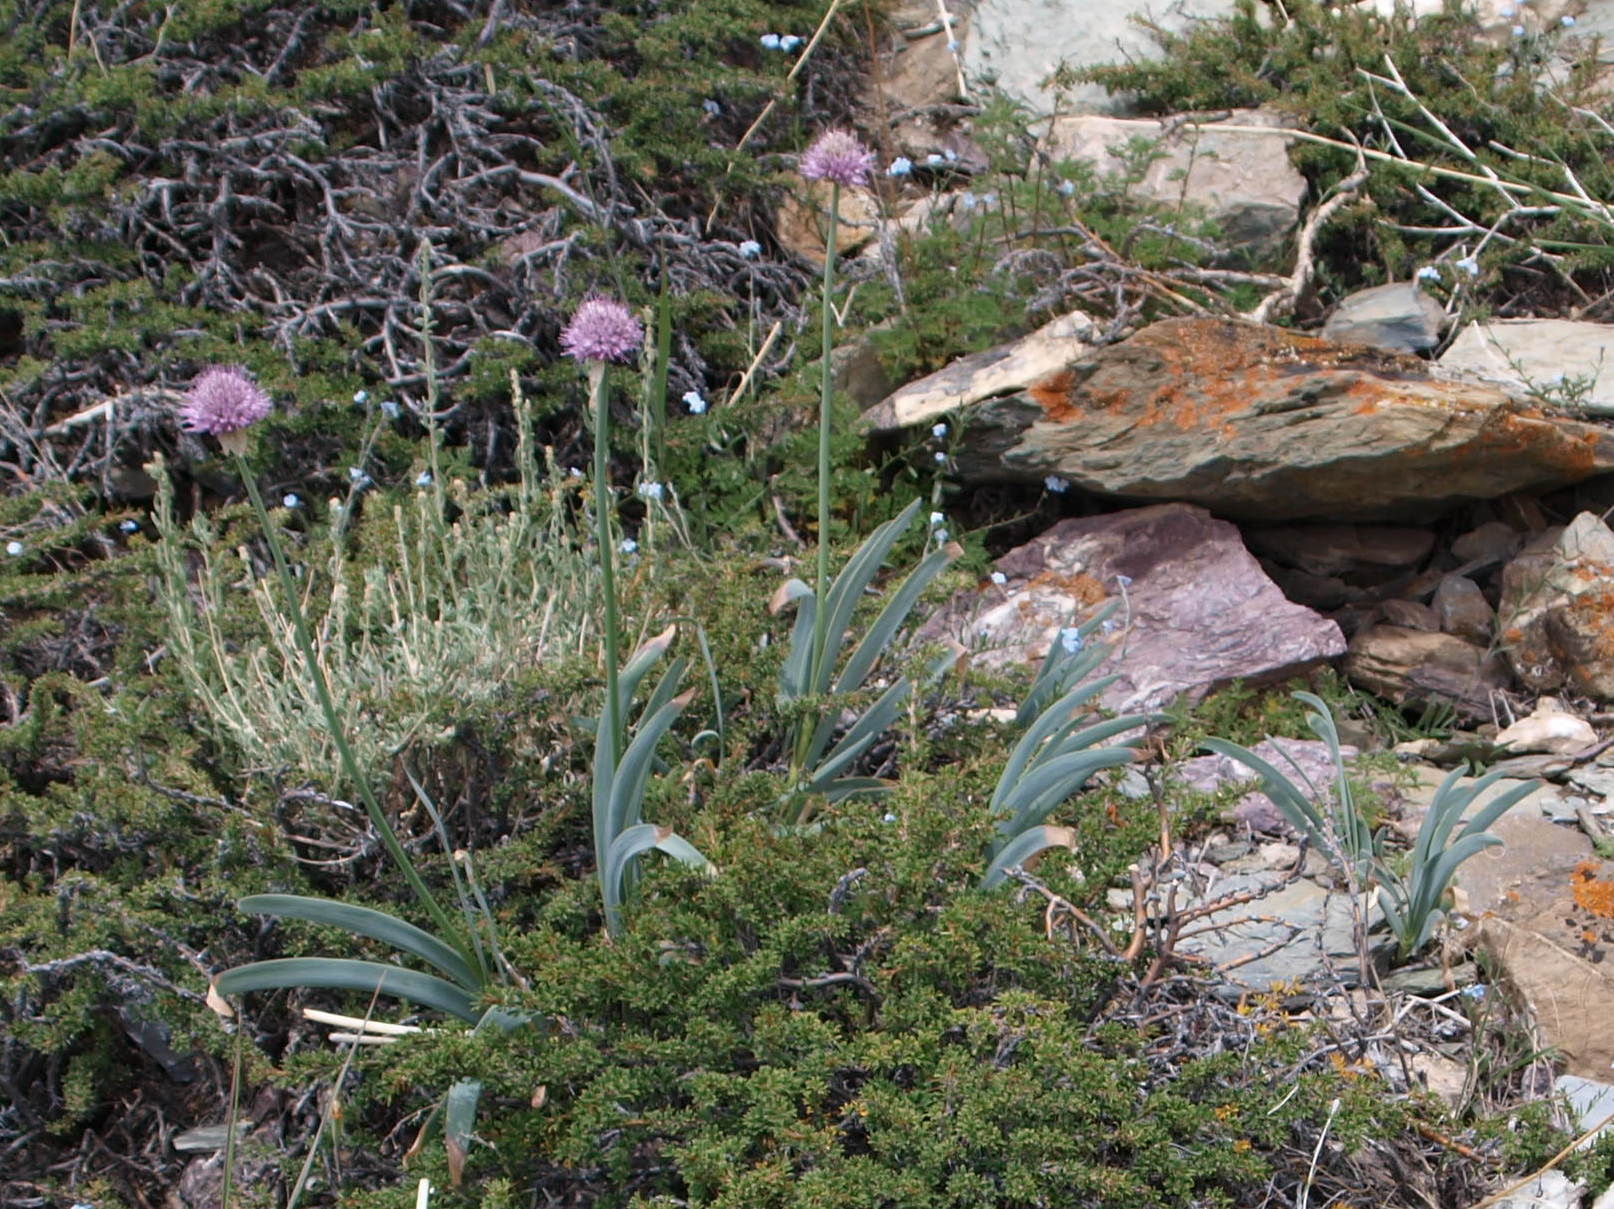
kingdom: Plantae
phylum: Tracheophyta
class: Liliopsida
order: Asparagales
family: Amaryllidaceae
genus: Allium
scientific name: Allium carolinianum
